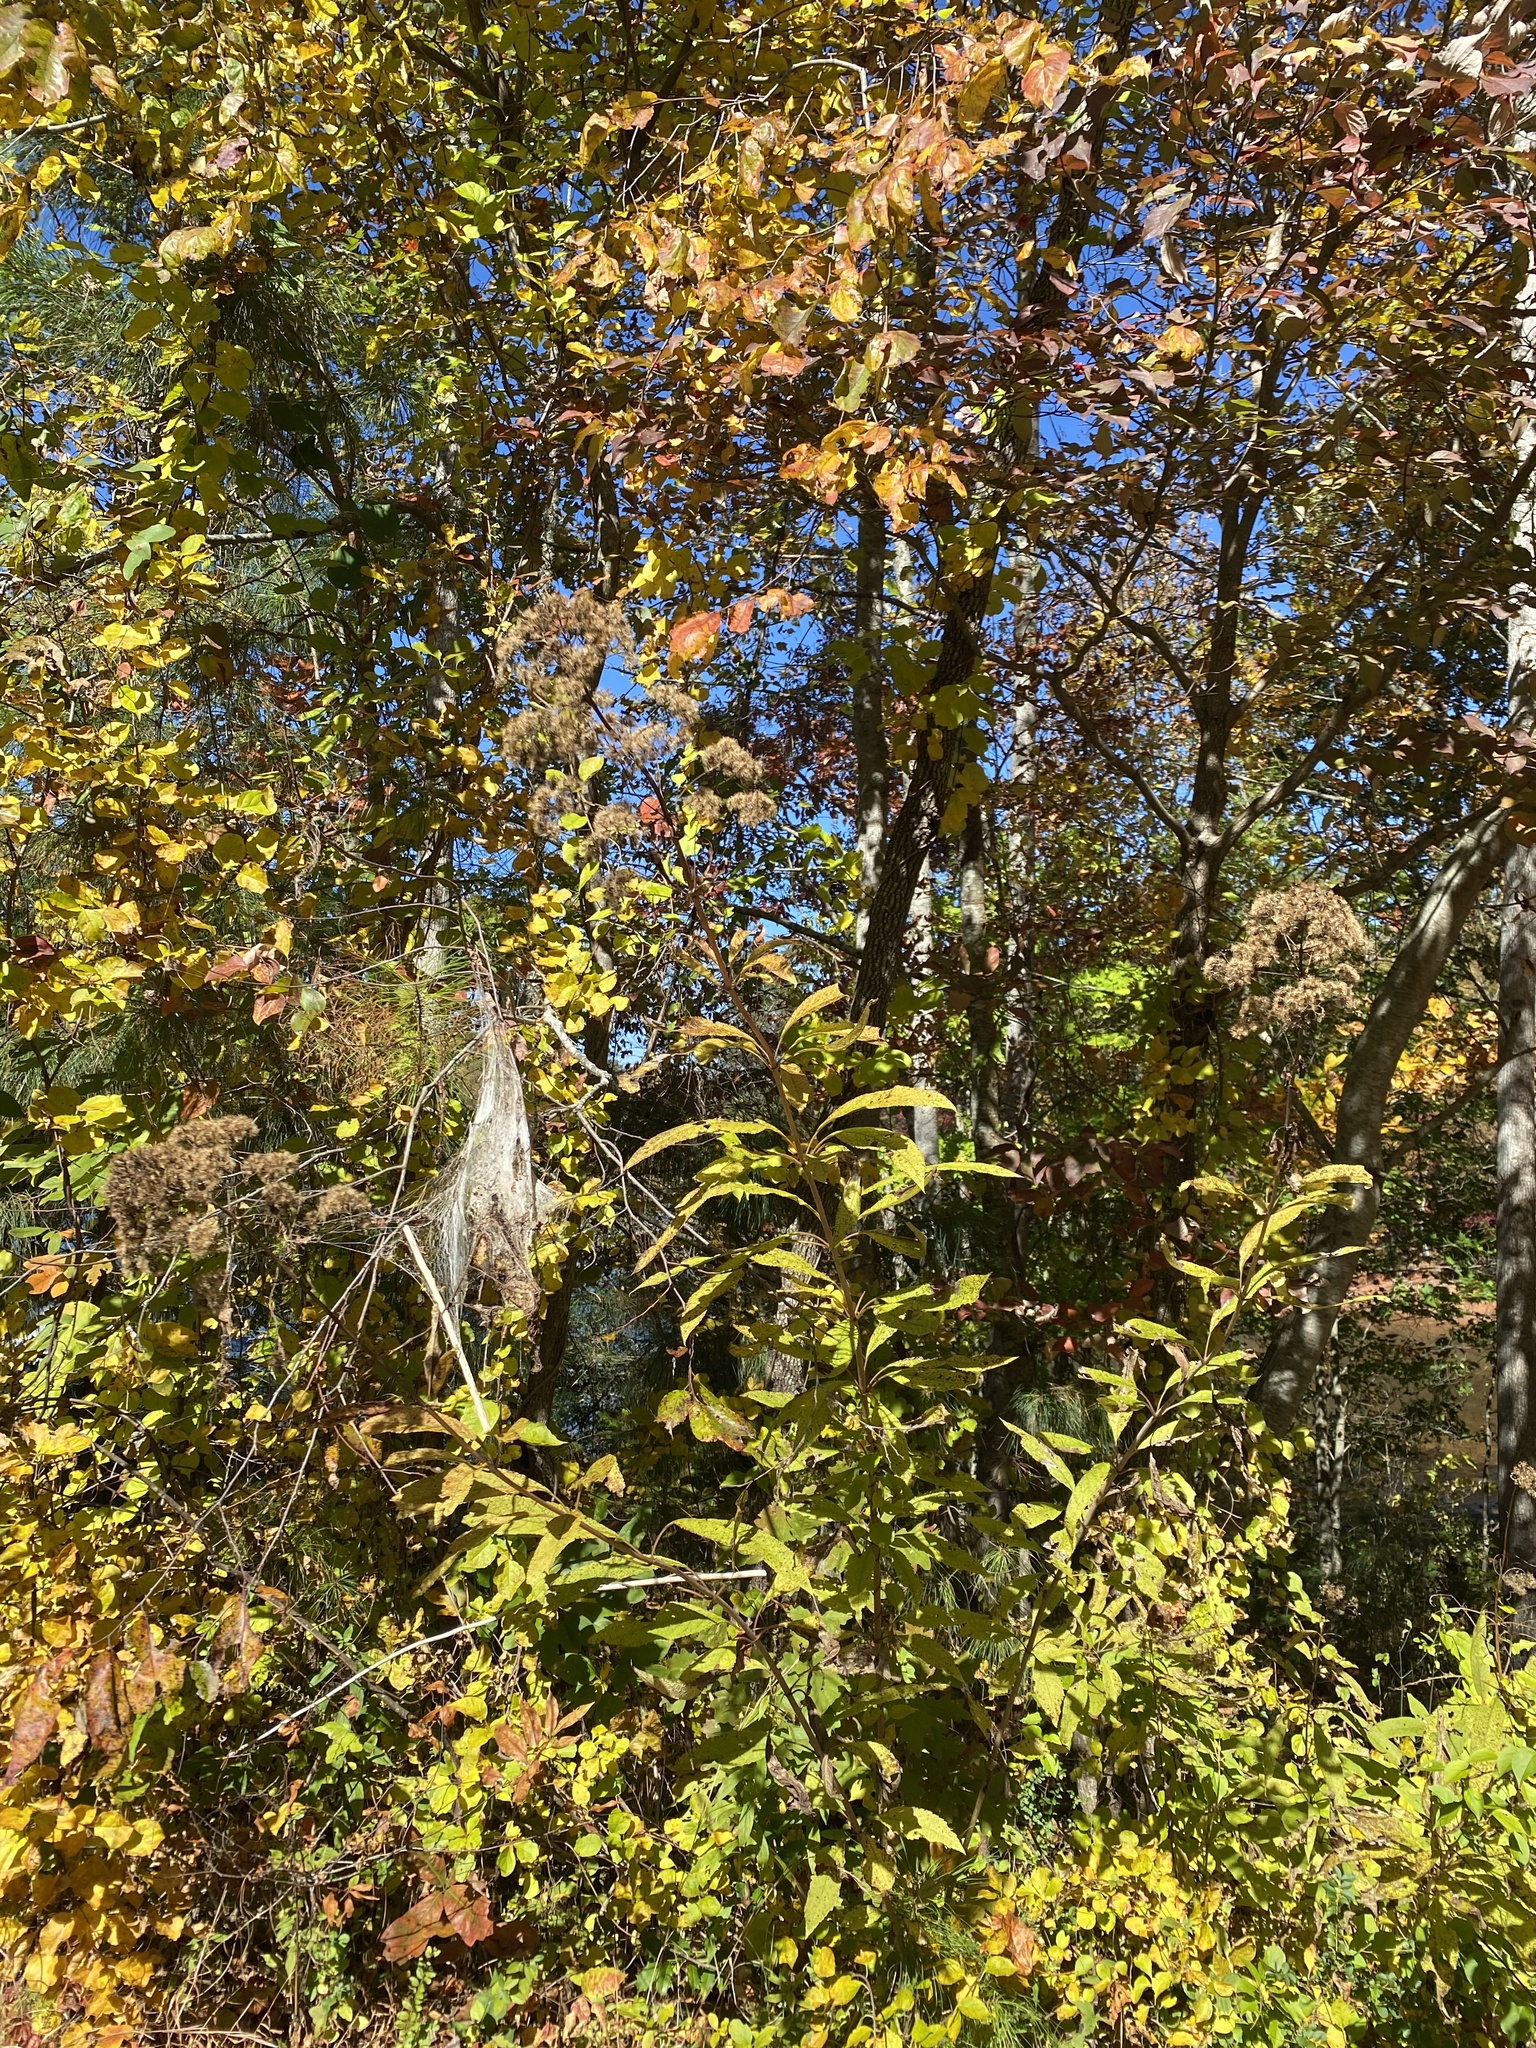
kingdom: Plantae
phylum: Tracheophyta
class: Magnoliopsida
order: Asterales
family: Asteraceae
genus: Eutrochium
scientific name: Eutrochium fistulosum
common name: Trumpetweed
